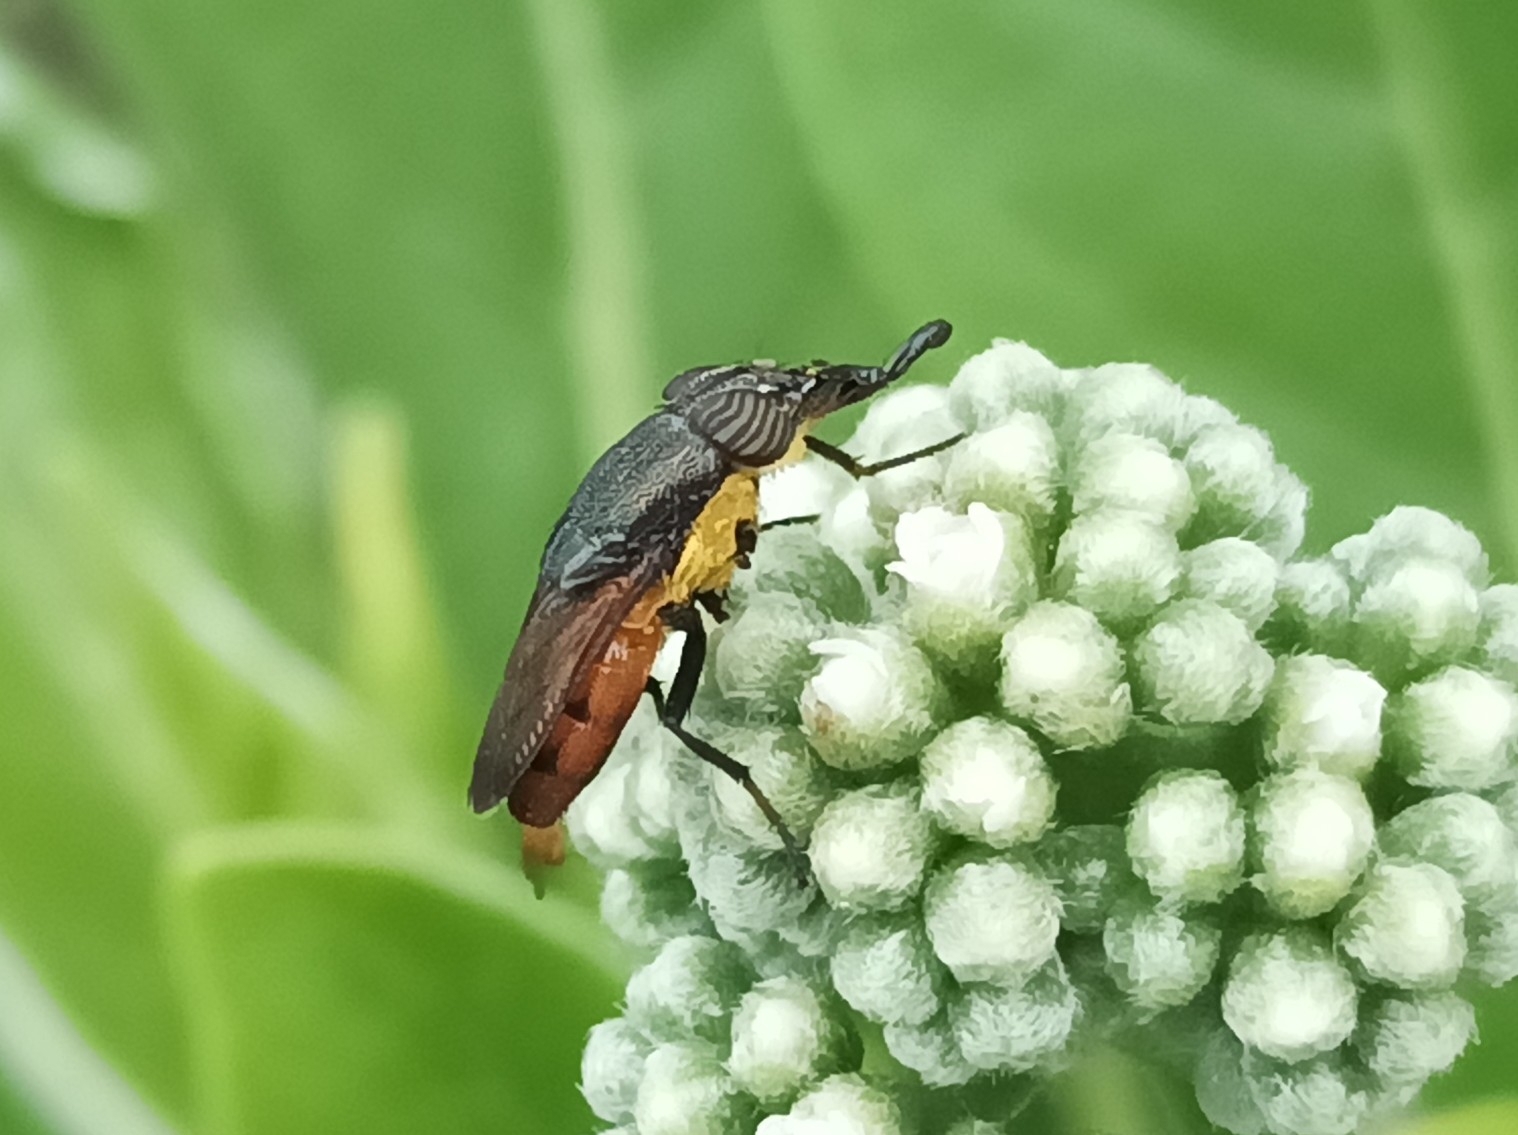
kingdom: Animalia
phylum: Arthropoda
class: Insecta
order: Diptera
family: Calliphoridae
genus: Idiellopsis
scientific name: Idiellopsis xanthogaster
